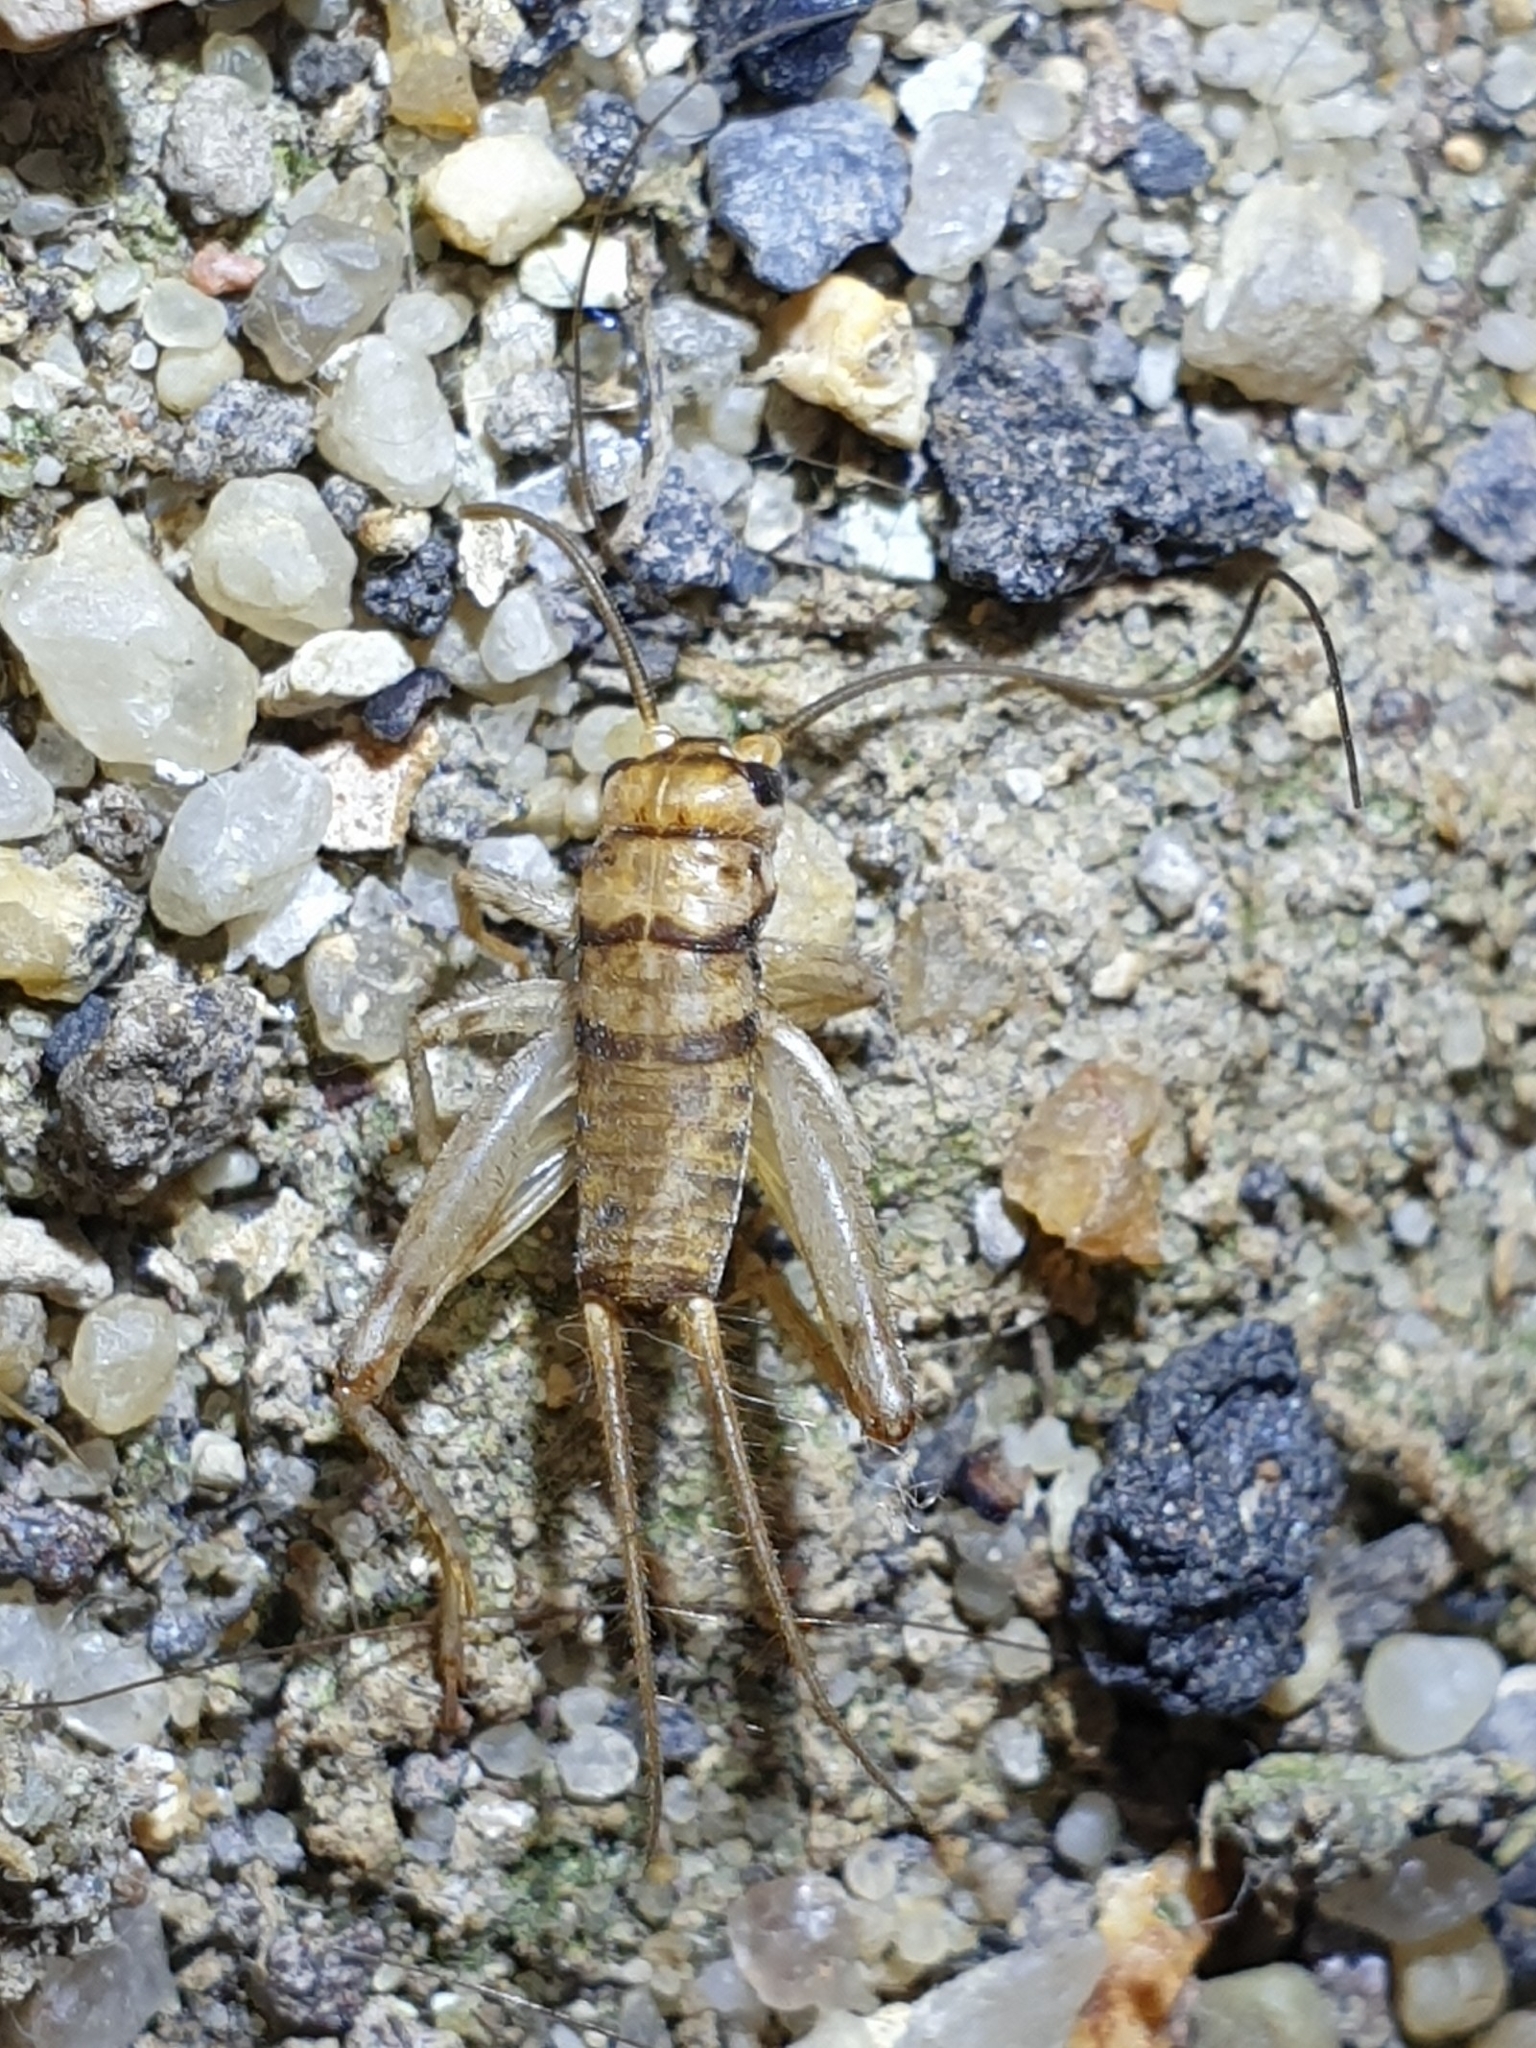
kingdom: Animalia
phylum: Arthropoda
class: Insecta
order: Orthoptera
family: Gryllidae
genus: Gryllodes
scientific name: Gryllodes sigillatus
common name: Tropical house cricket
